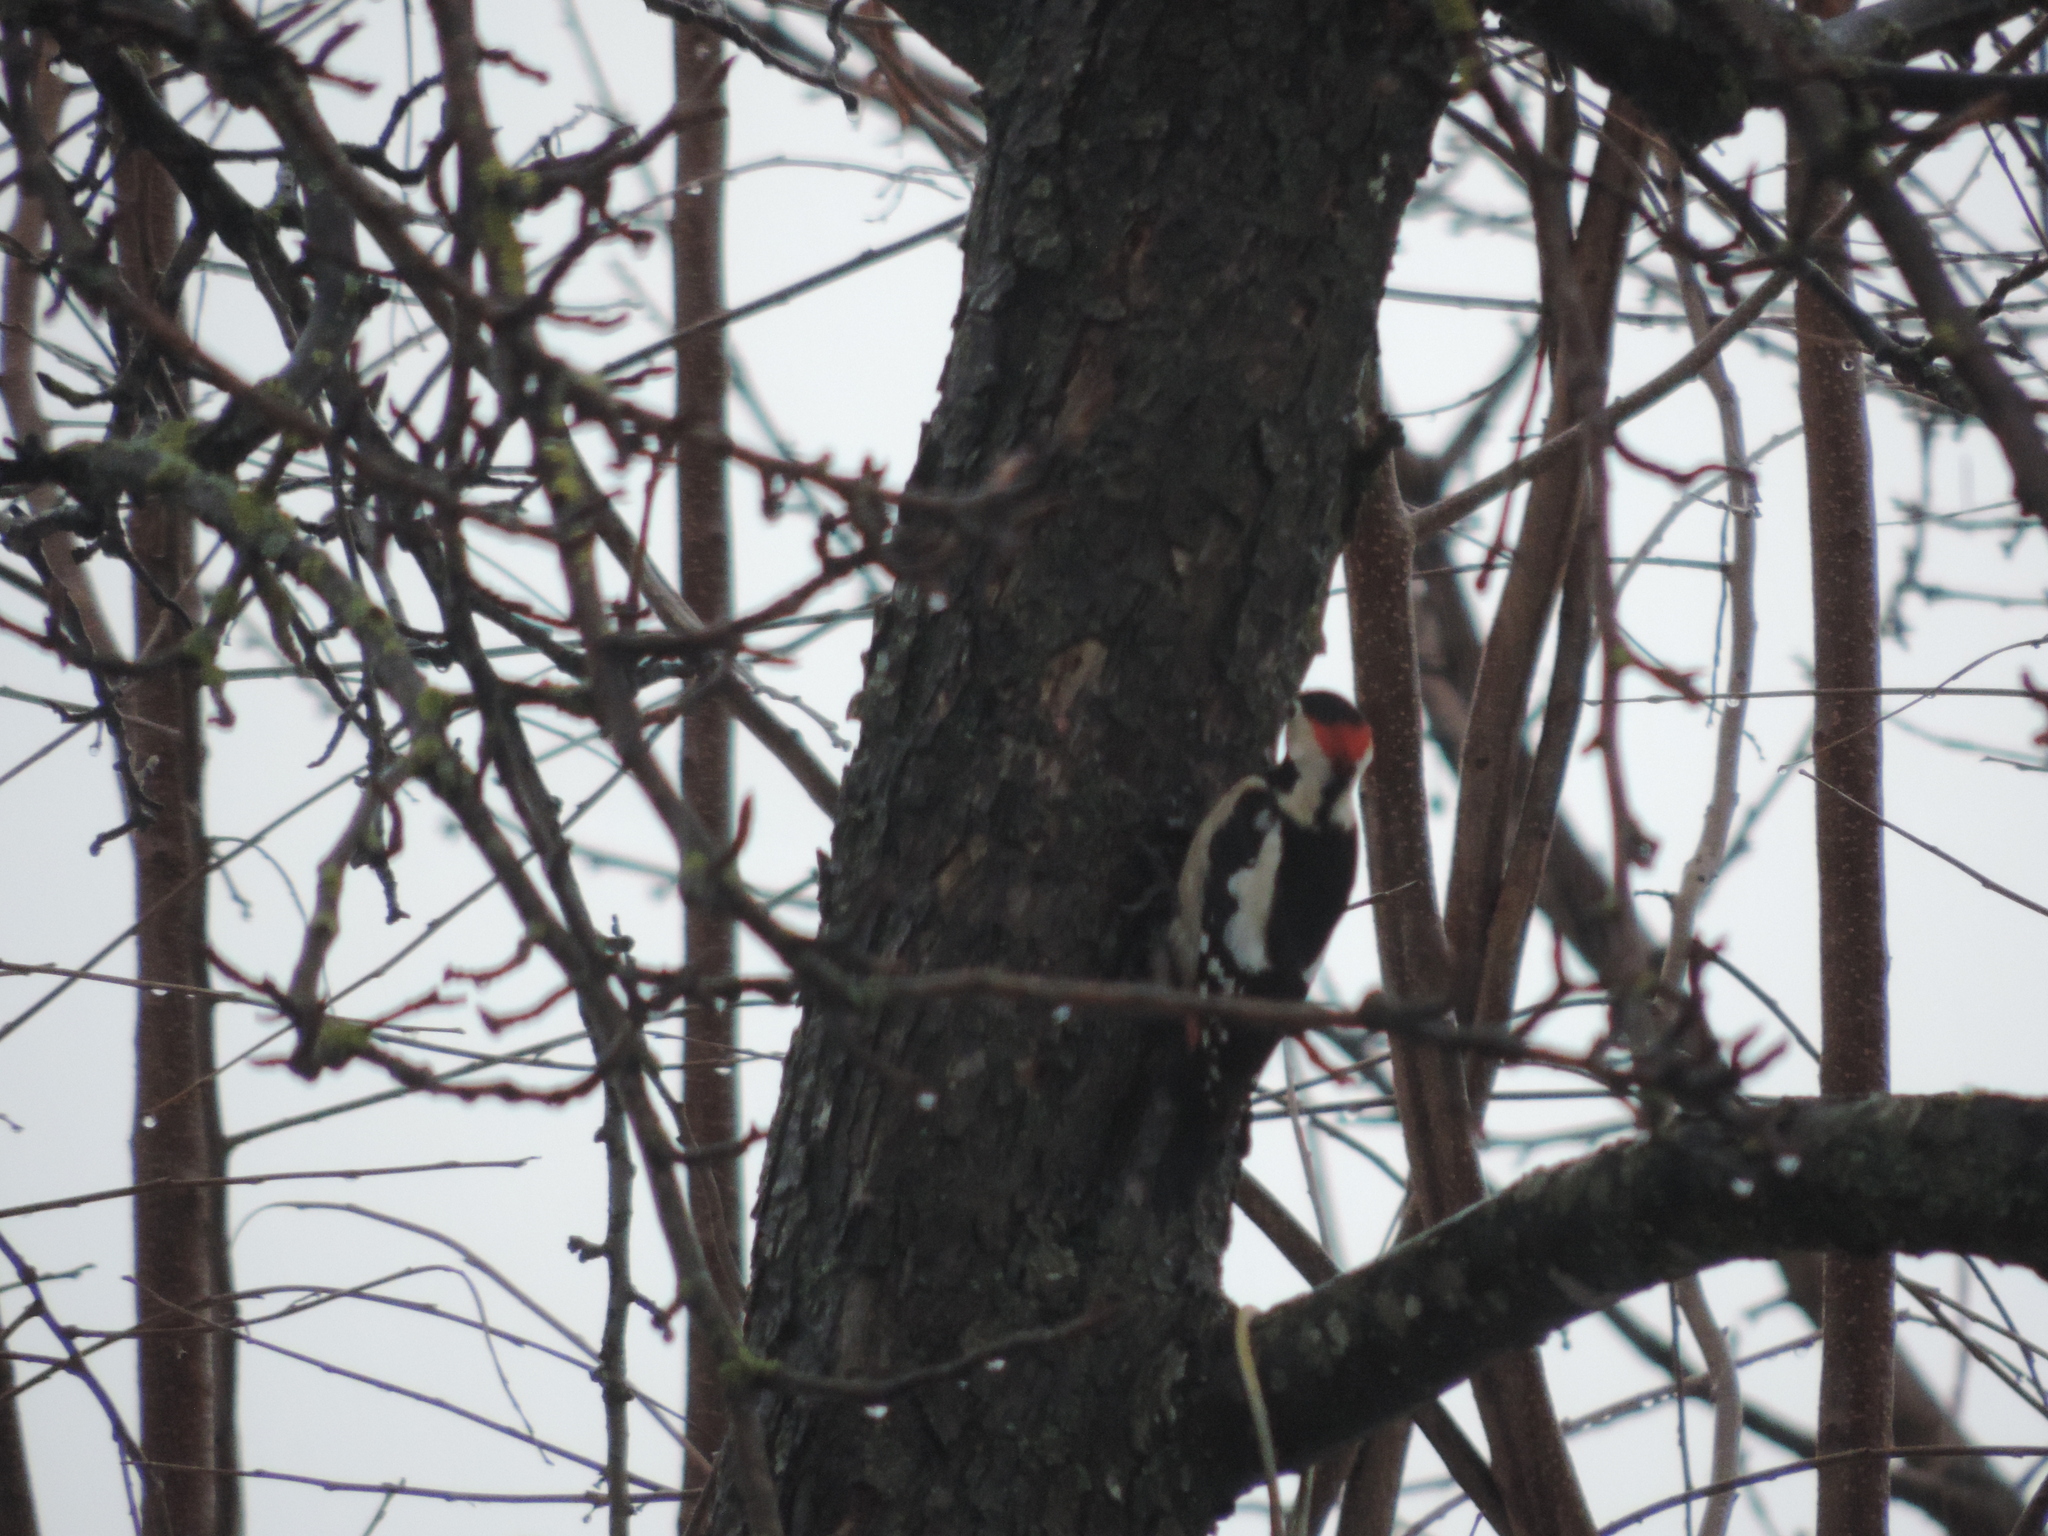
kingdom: Animalia
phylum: Chordata
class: Aves
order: Piciformes
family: Picidae
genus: Dendrocopos
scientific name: Dendrocopos syriacus
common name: Syrian woodpecker
